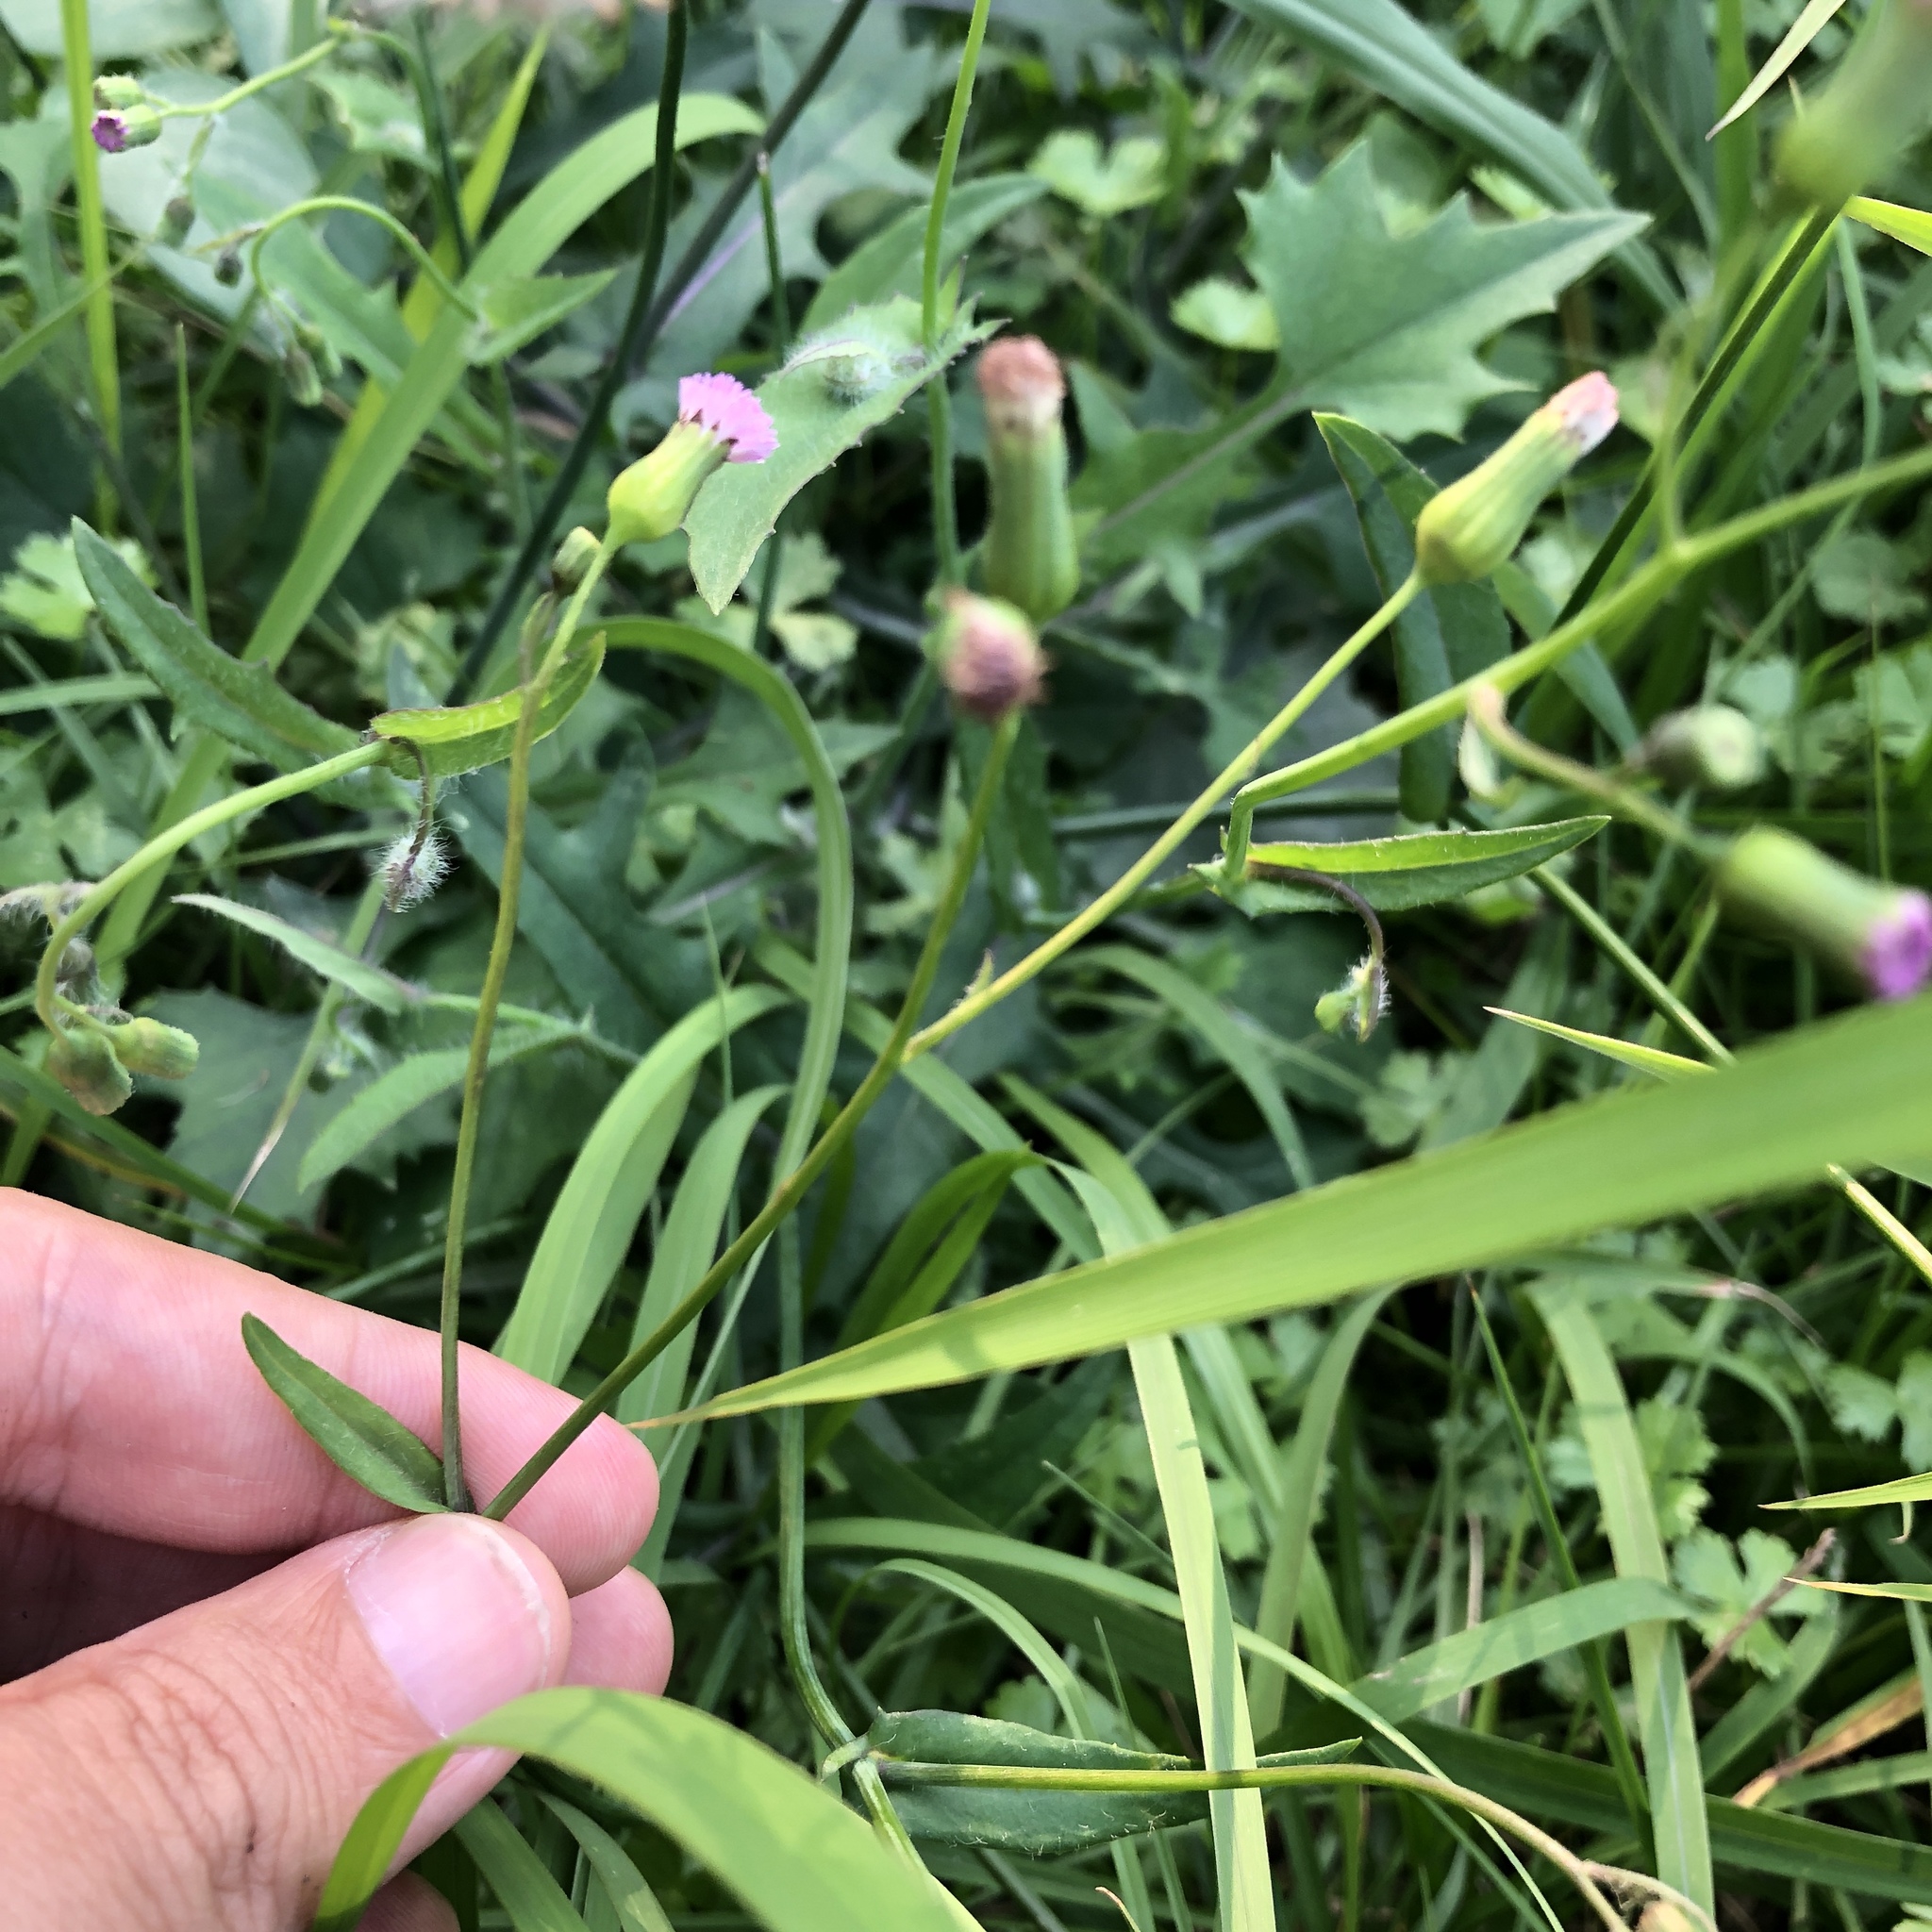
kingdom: Plantae
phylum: Tracheophyta
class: Magnoliopsida
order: Asterales
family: Asteraceae
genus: Emilia
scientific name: Emilia javanica
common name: Tassel-flower
